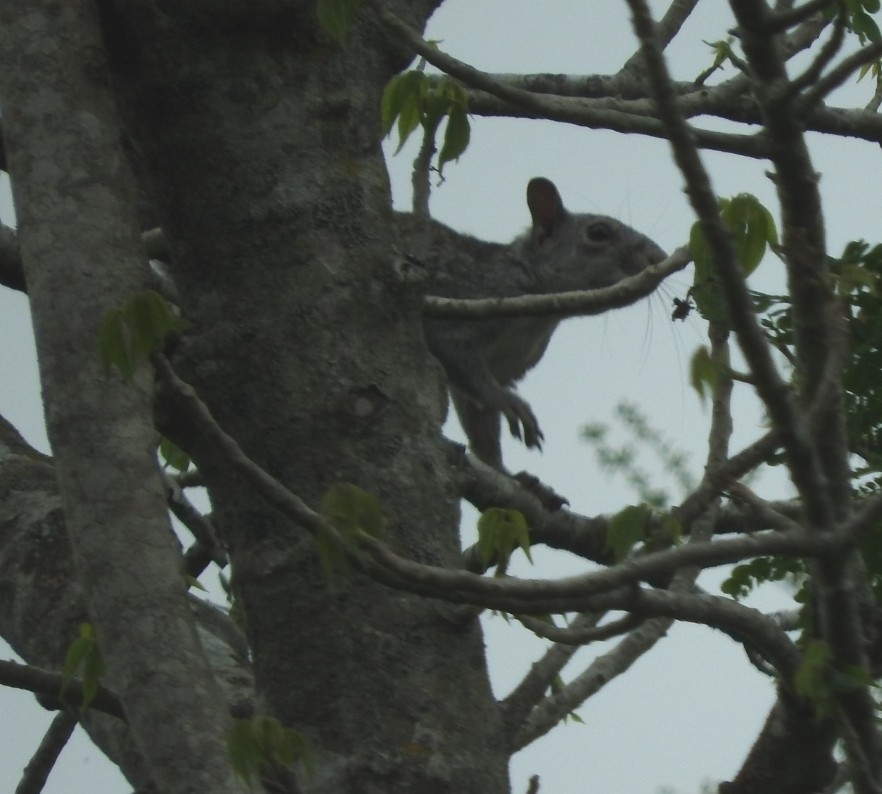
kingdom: Animalia
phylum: Chordata
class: Mammalia
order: Rodentia
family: Sciuridae
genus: Sciurus
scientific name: Sciurus yucatanensis
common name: Yucatan squirrel
